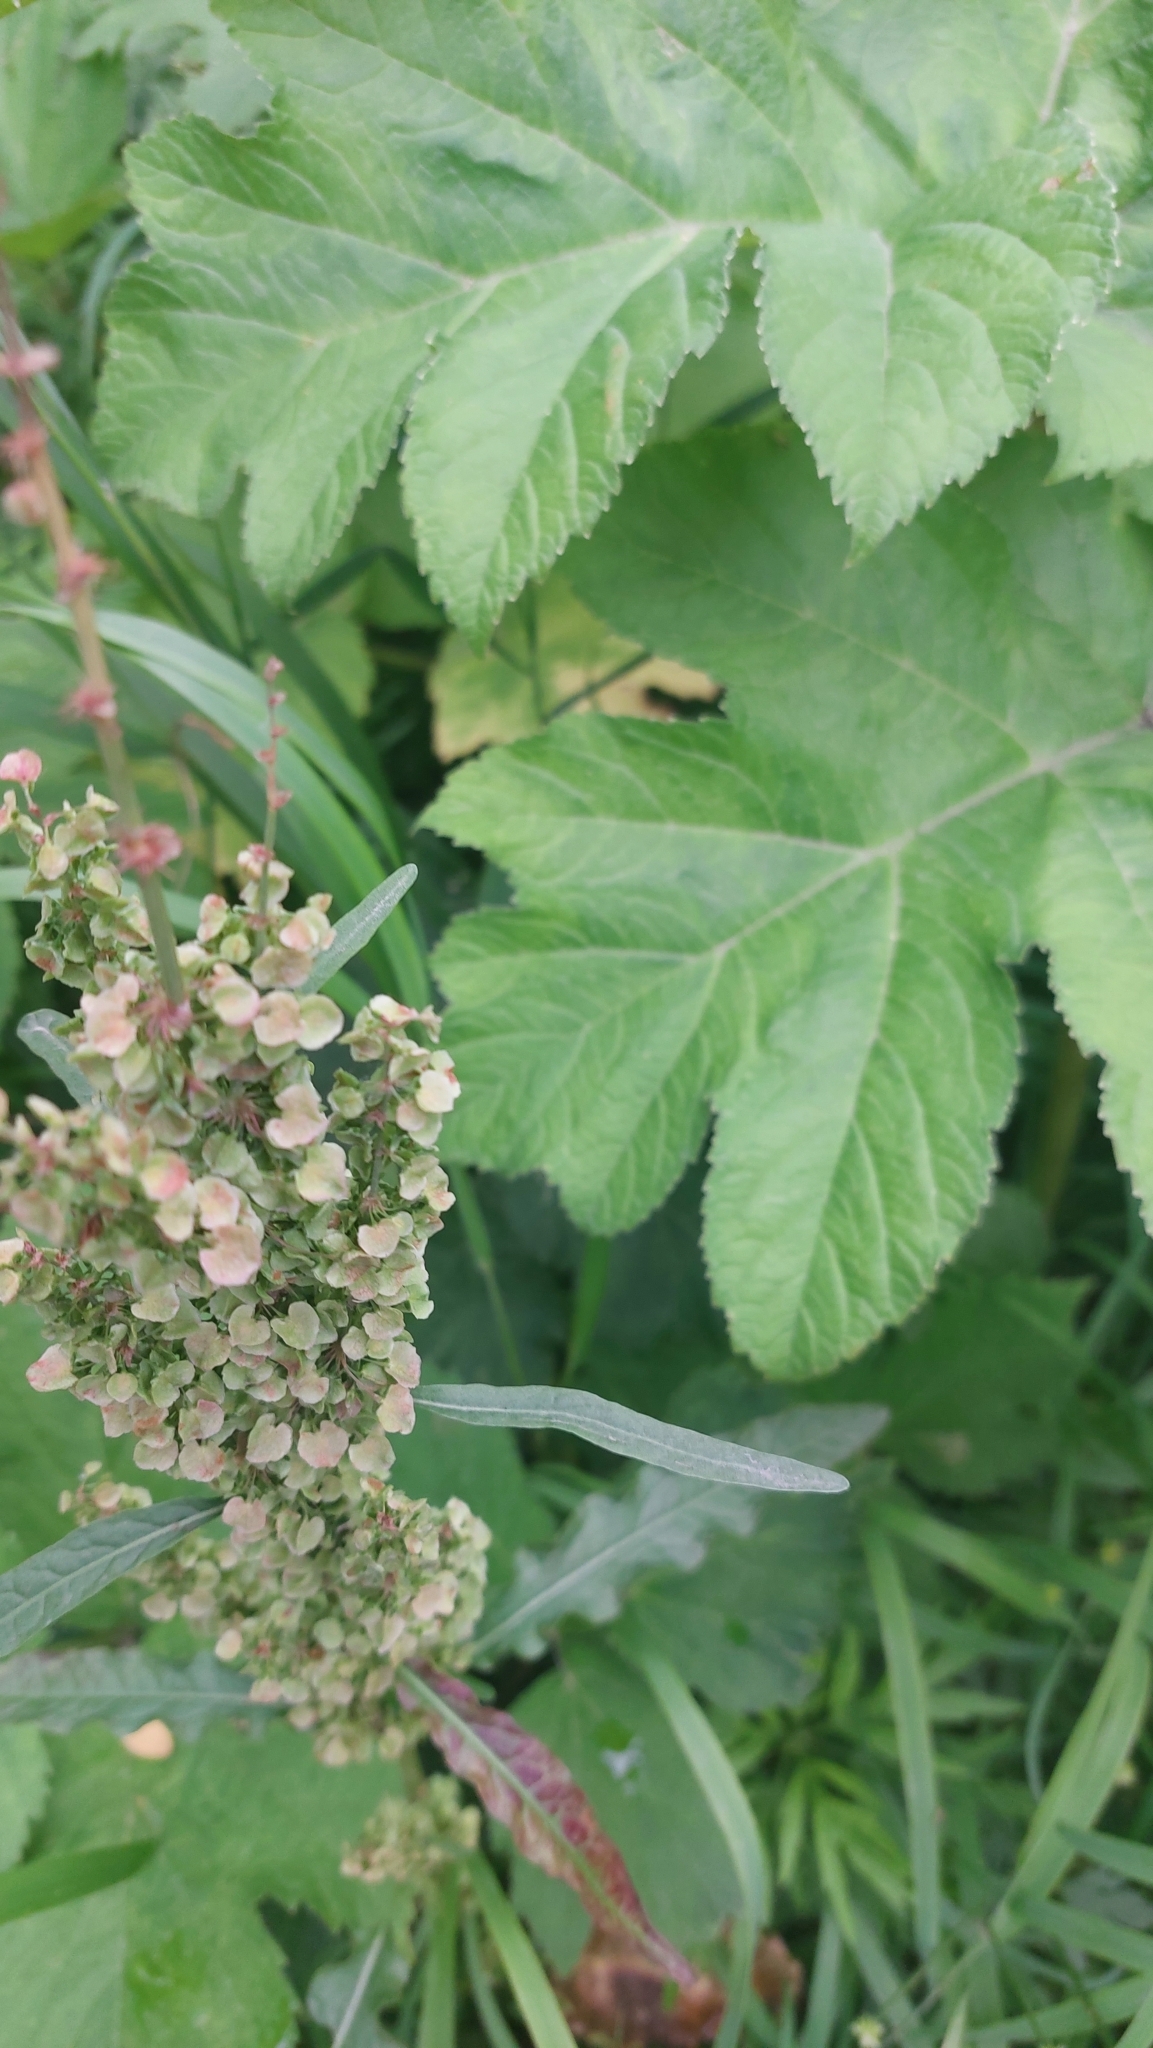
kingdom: Plantae
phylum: Tracheophyta
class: Magnoliopsida
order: Caryophyllales
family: Polygonaceae
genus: Rumex
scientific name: Rumex longifolius
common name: Dooryard dock
